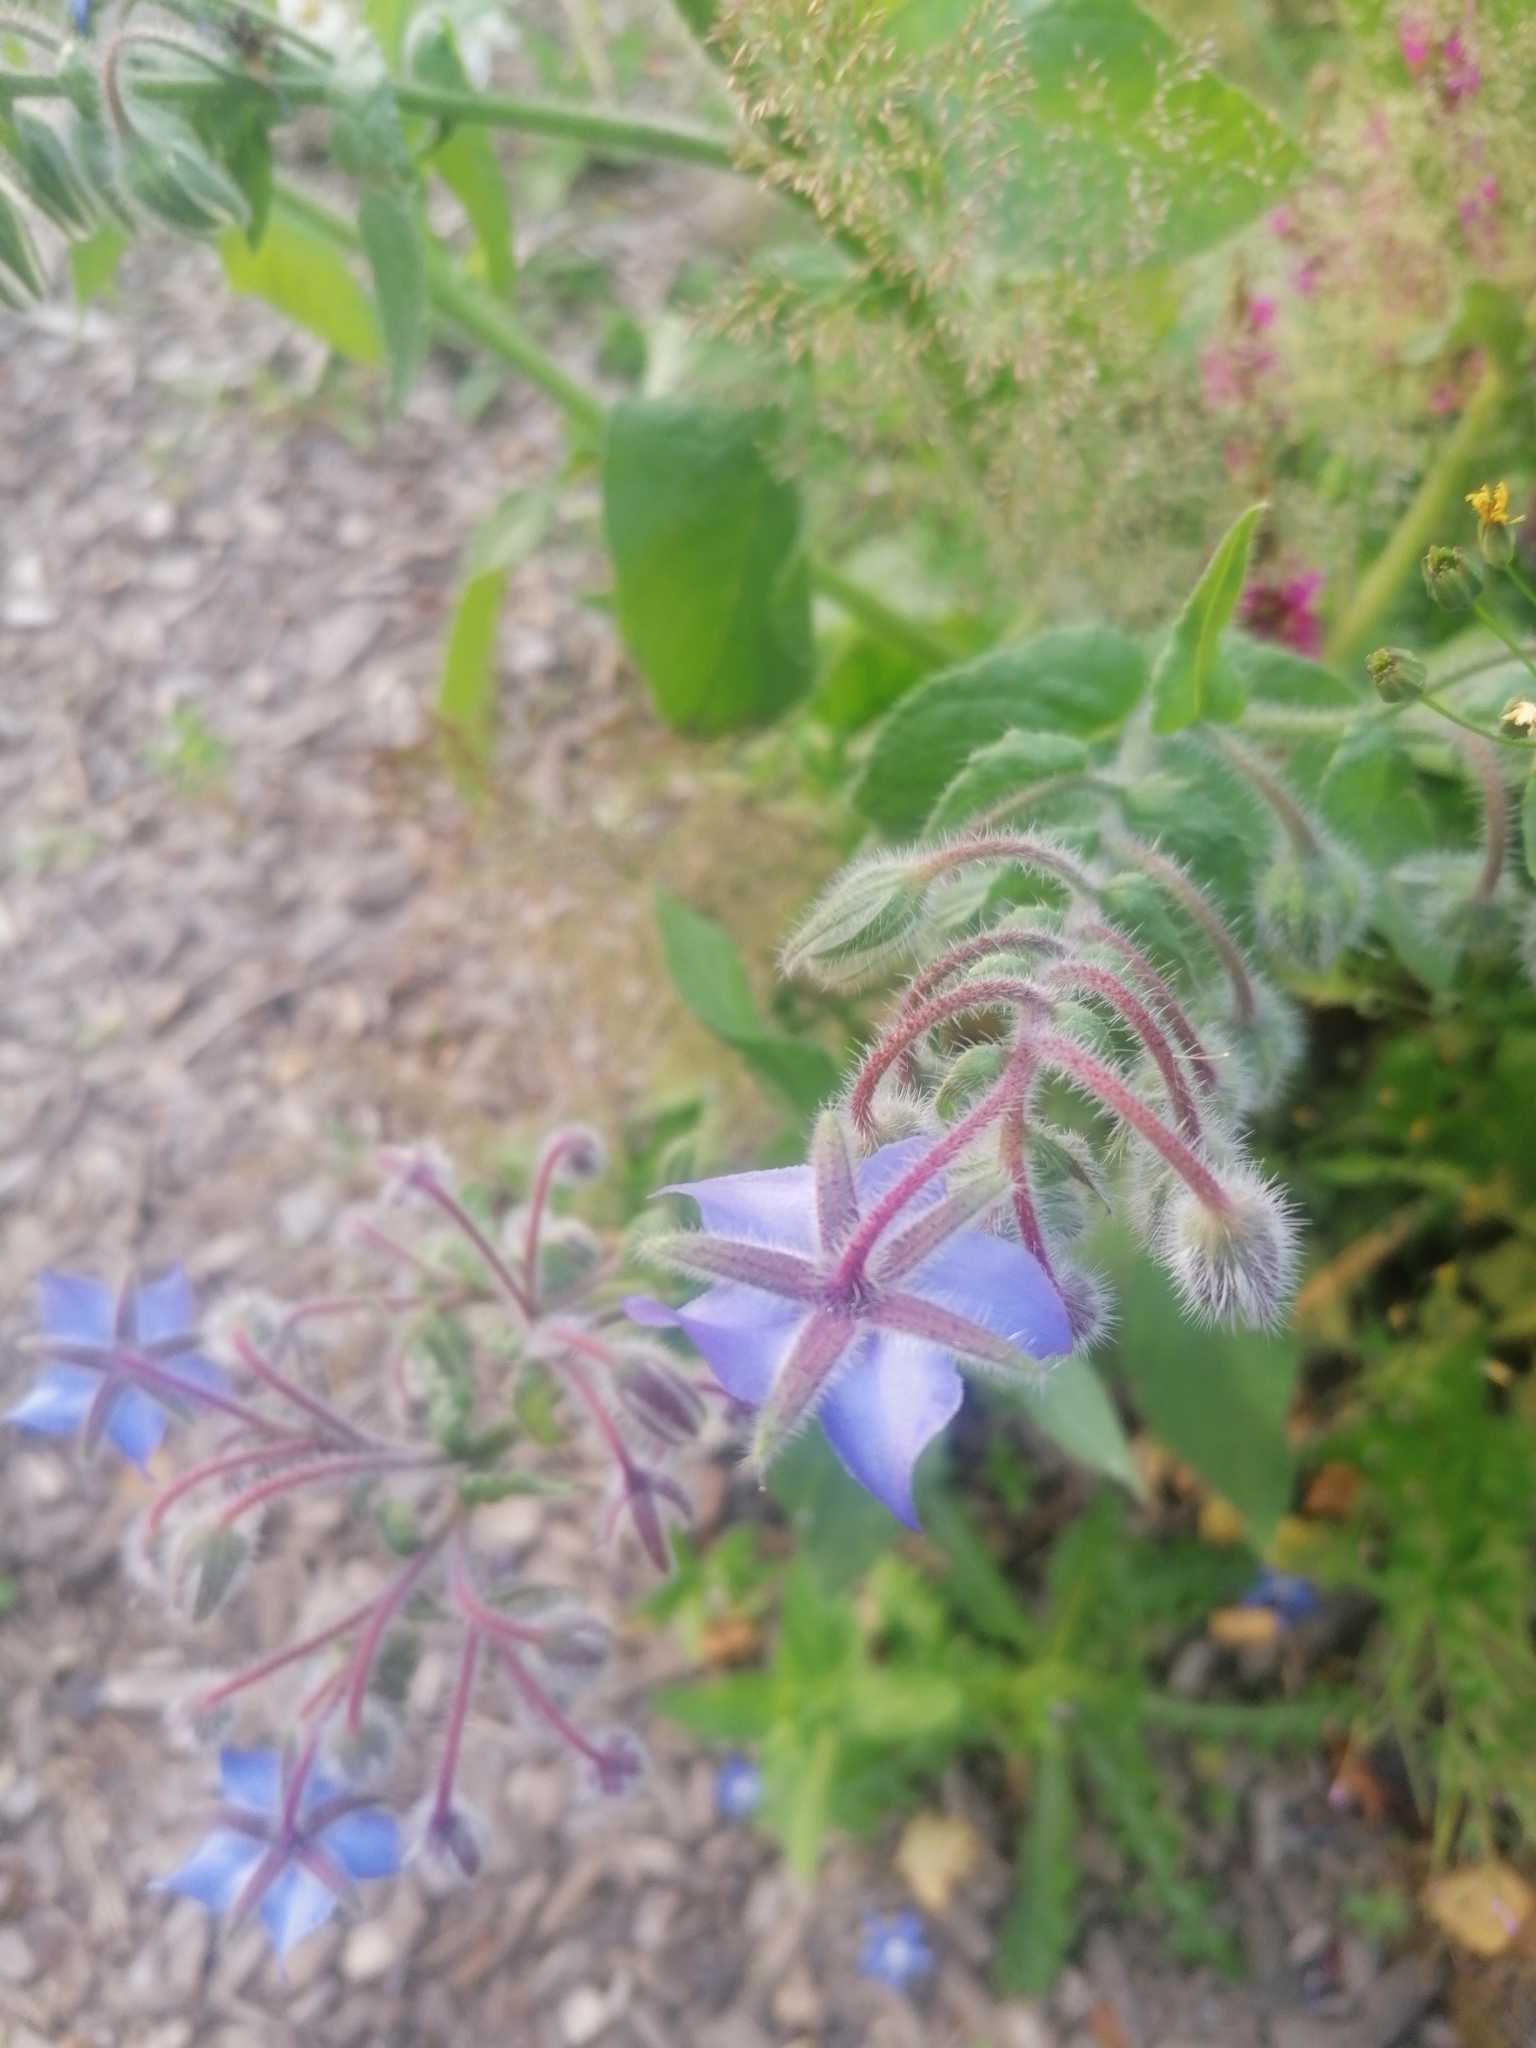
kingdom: Plantae
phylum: Tracheophyta
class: Magnoliopsida
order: Boraginales
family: Boraginaceae
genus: Borago
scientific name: Borago officinalis
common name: Borage
